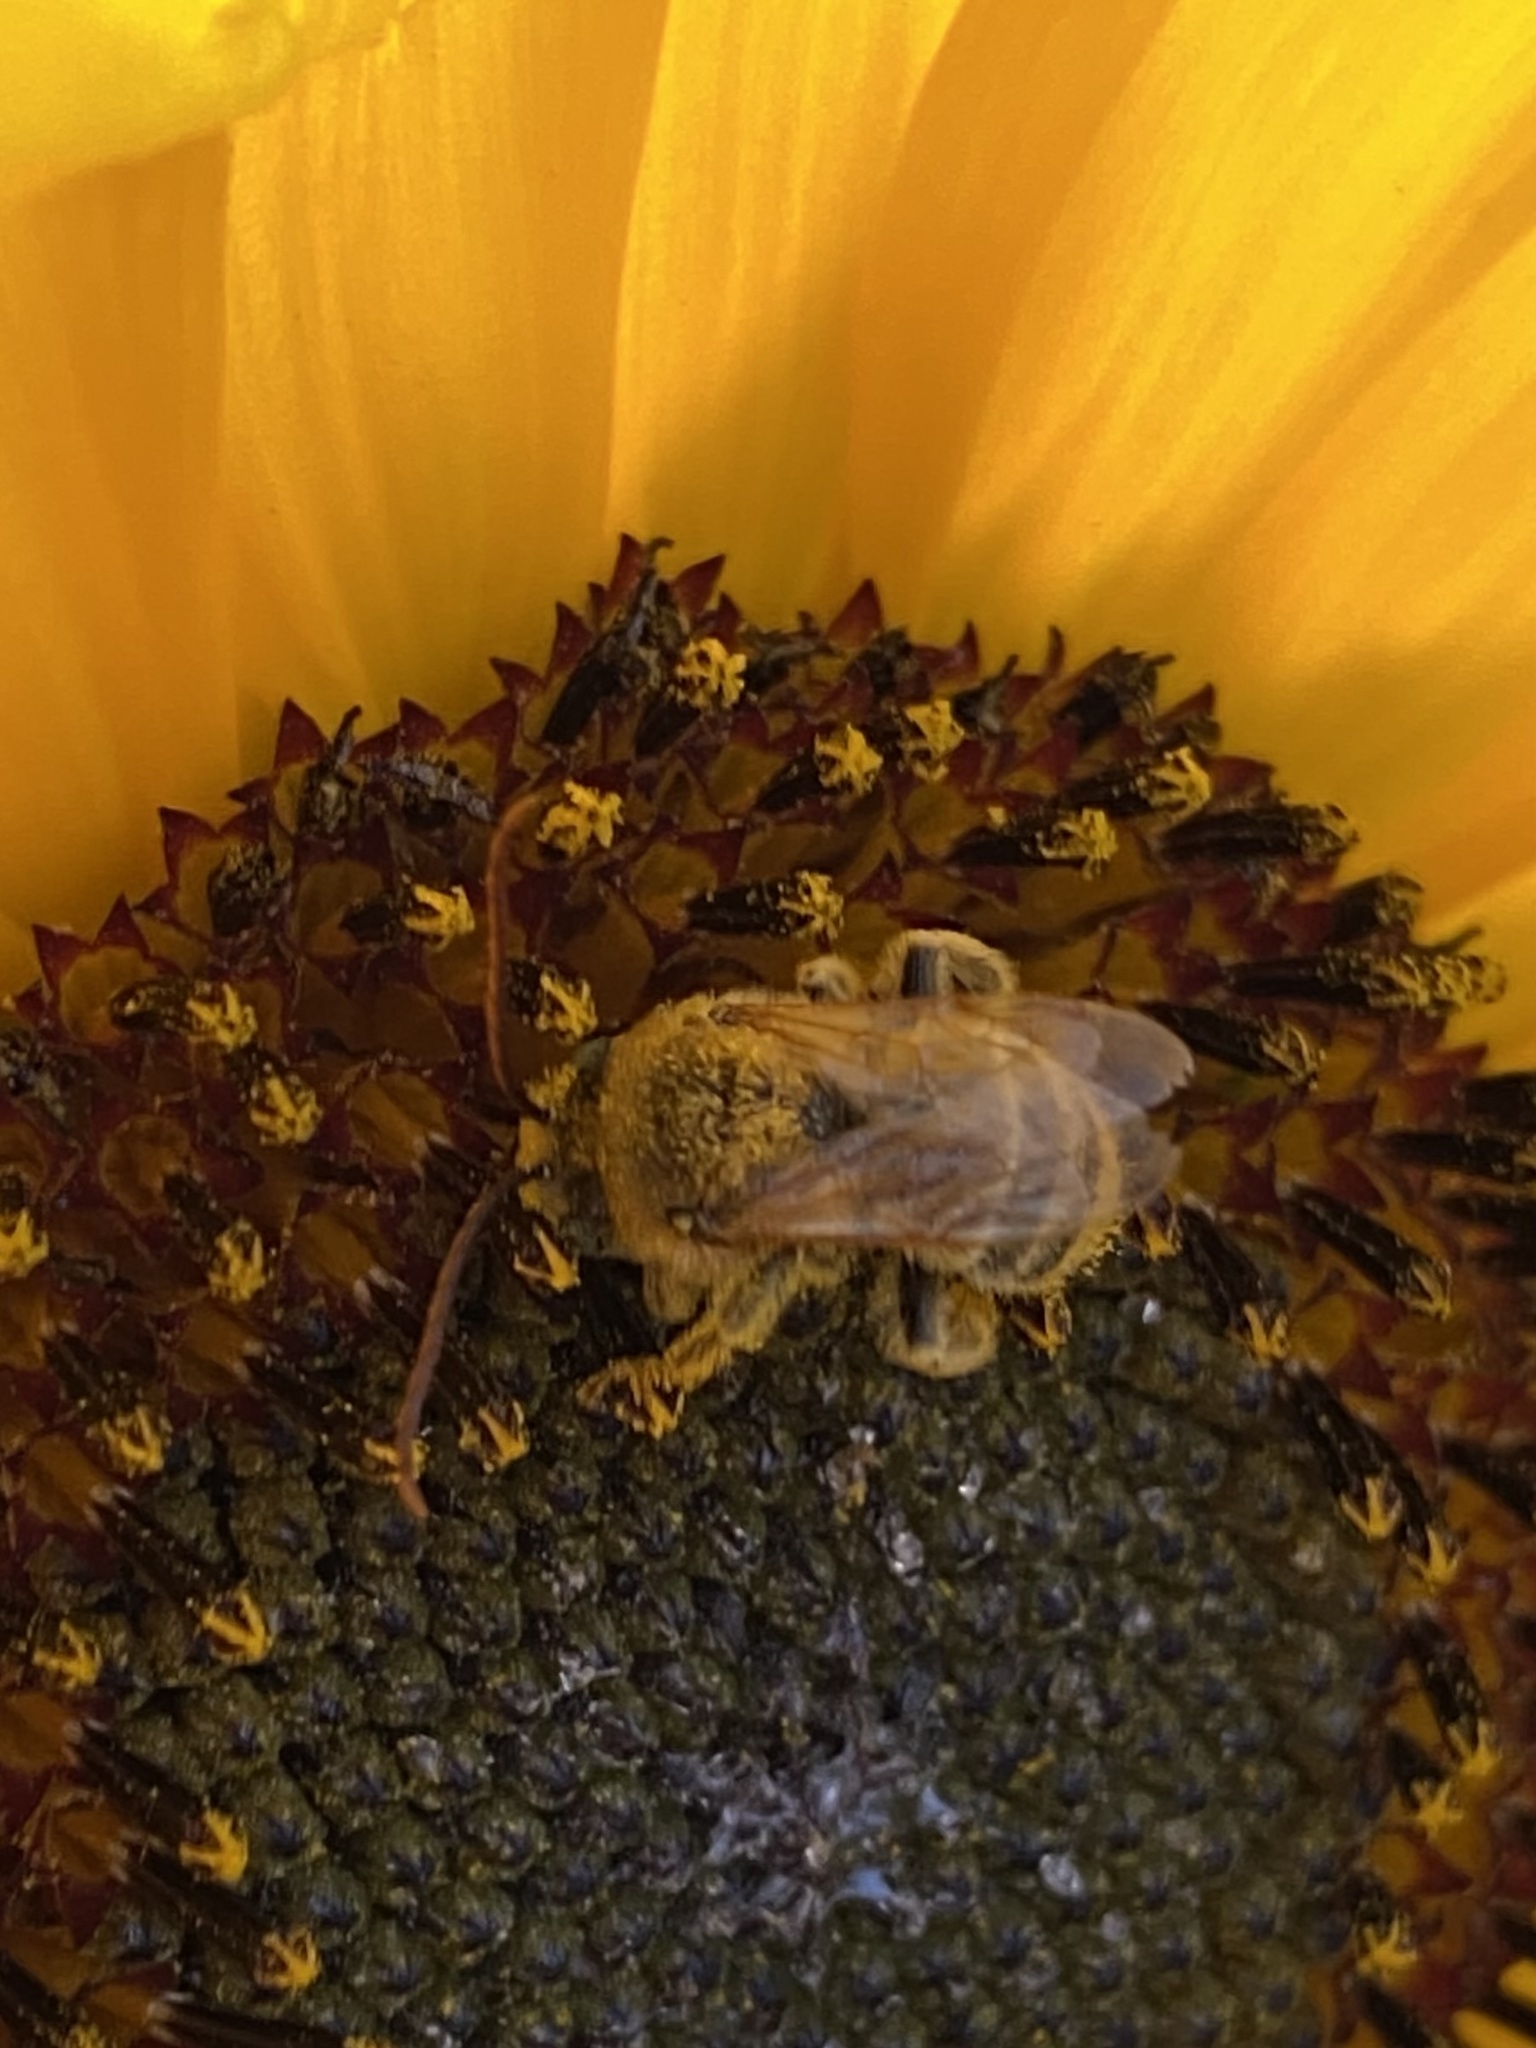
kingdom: Animalia
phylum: Arthropoda
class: Insecta
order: Hymenoptera
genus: Eumelissodes
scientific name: Eumelissodes
